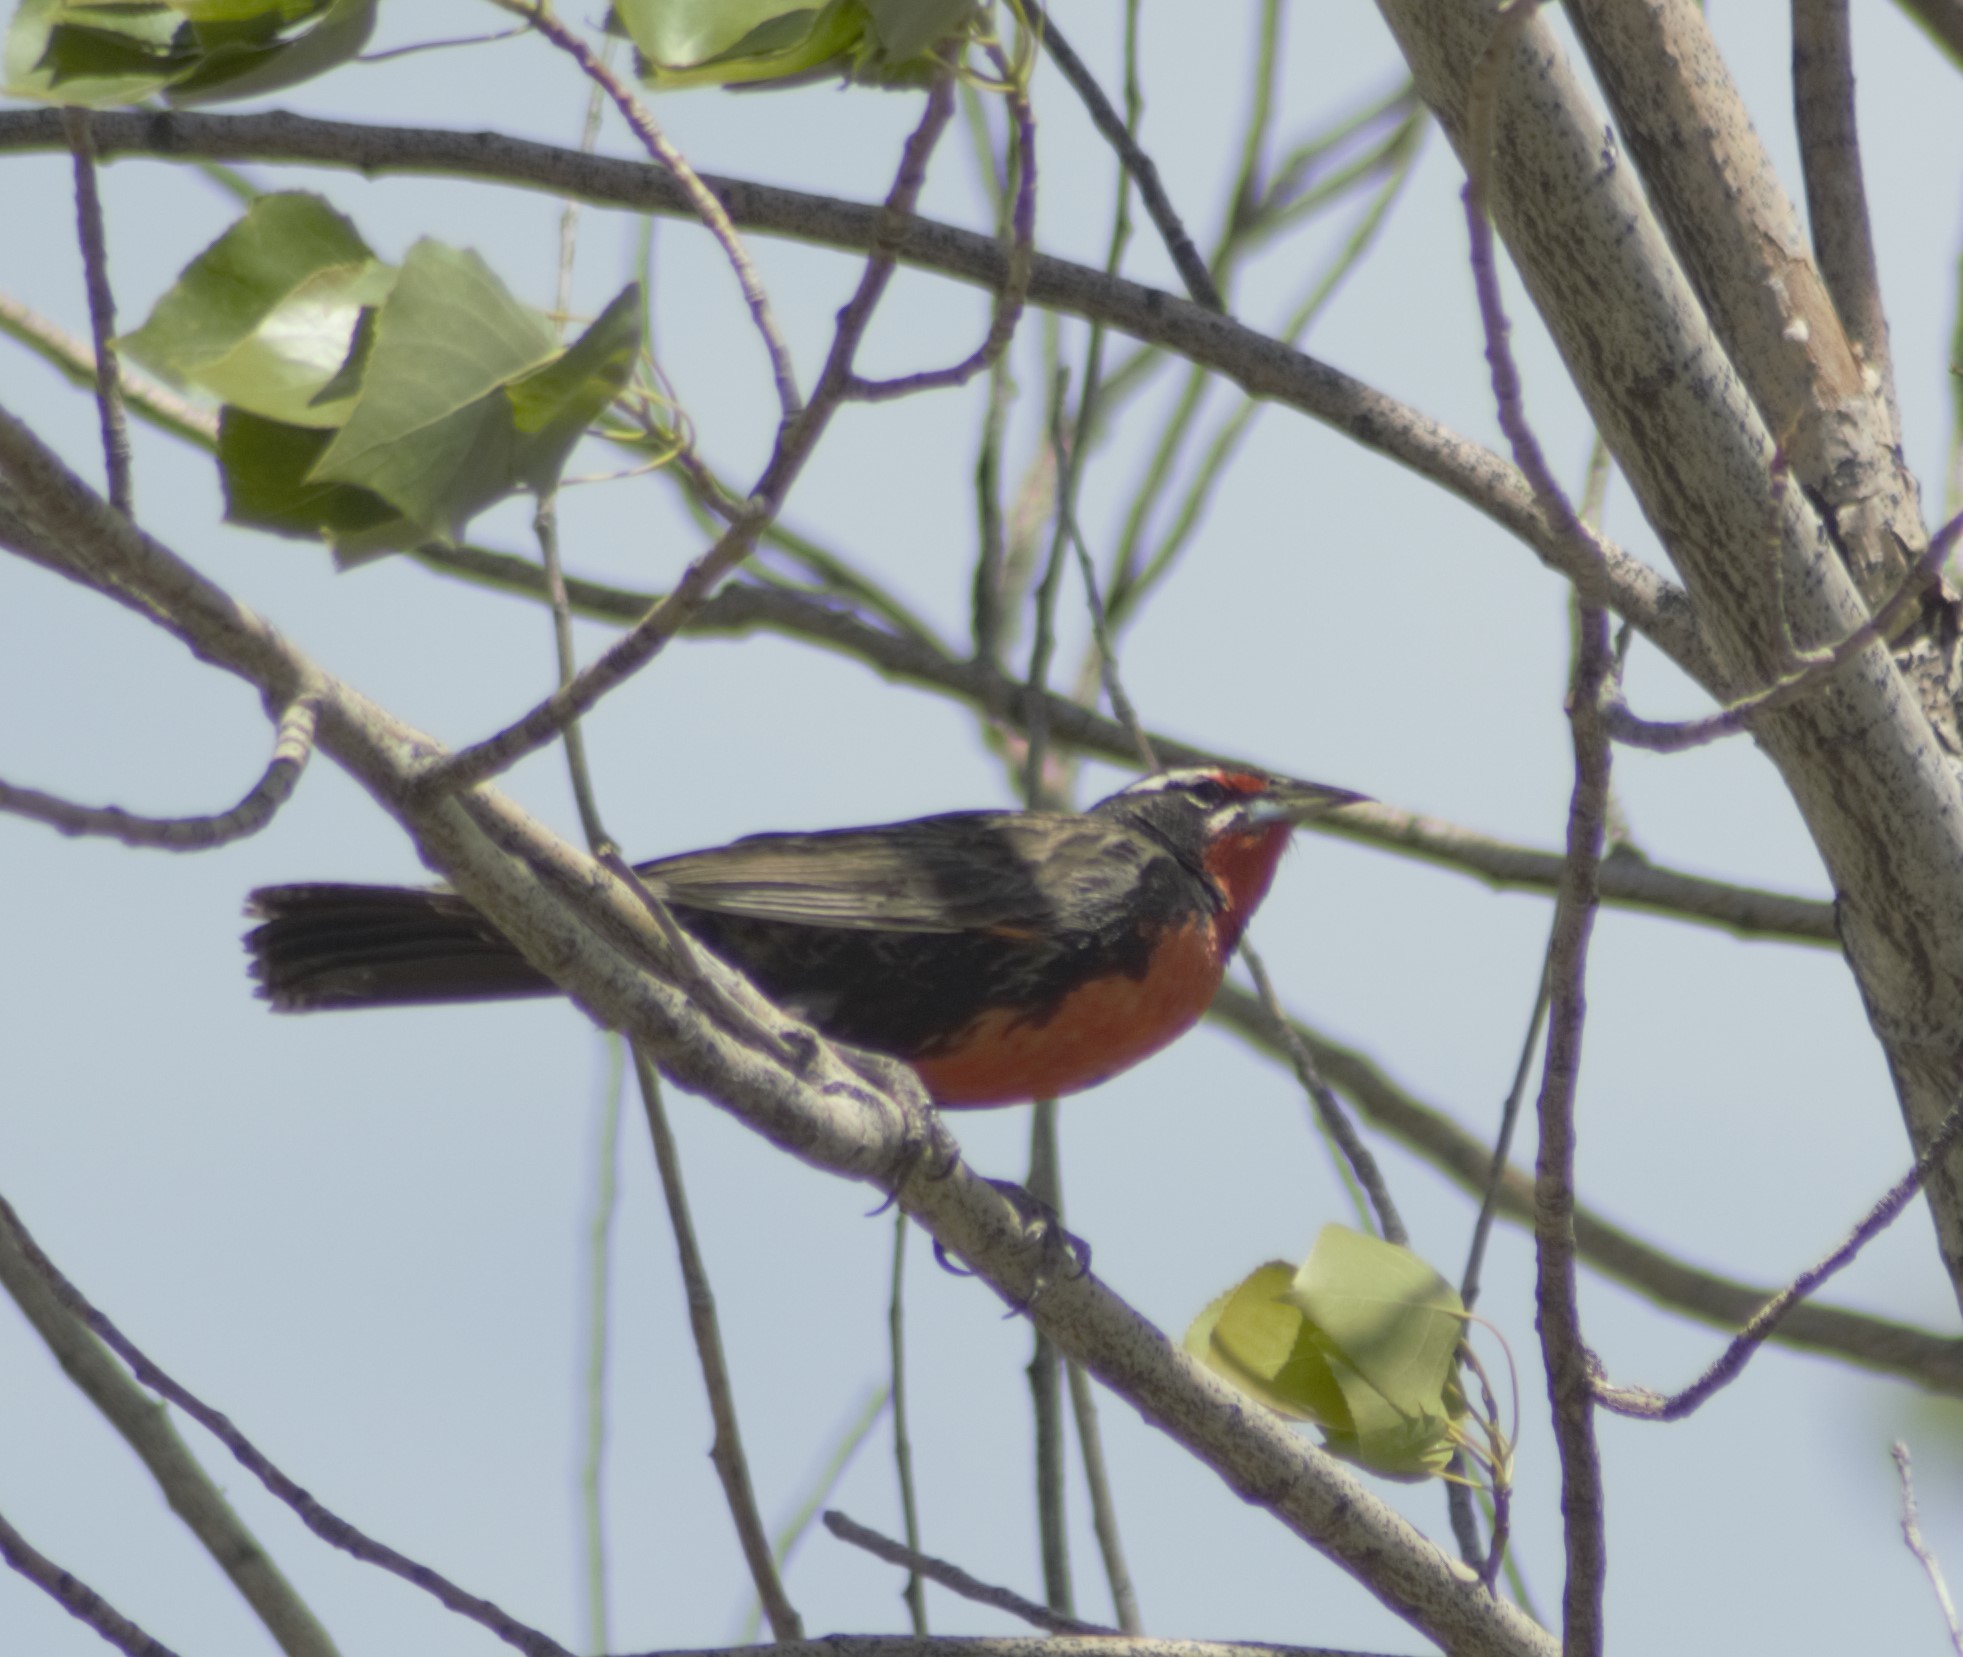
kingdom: Animalia
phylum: Chordata
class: Aves
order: Passeriformes
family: Icteridae
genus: Sturnella
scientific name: Sturnella loyca
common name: Long-tailed meadowlark
